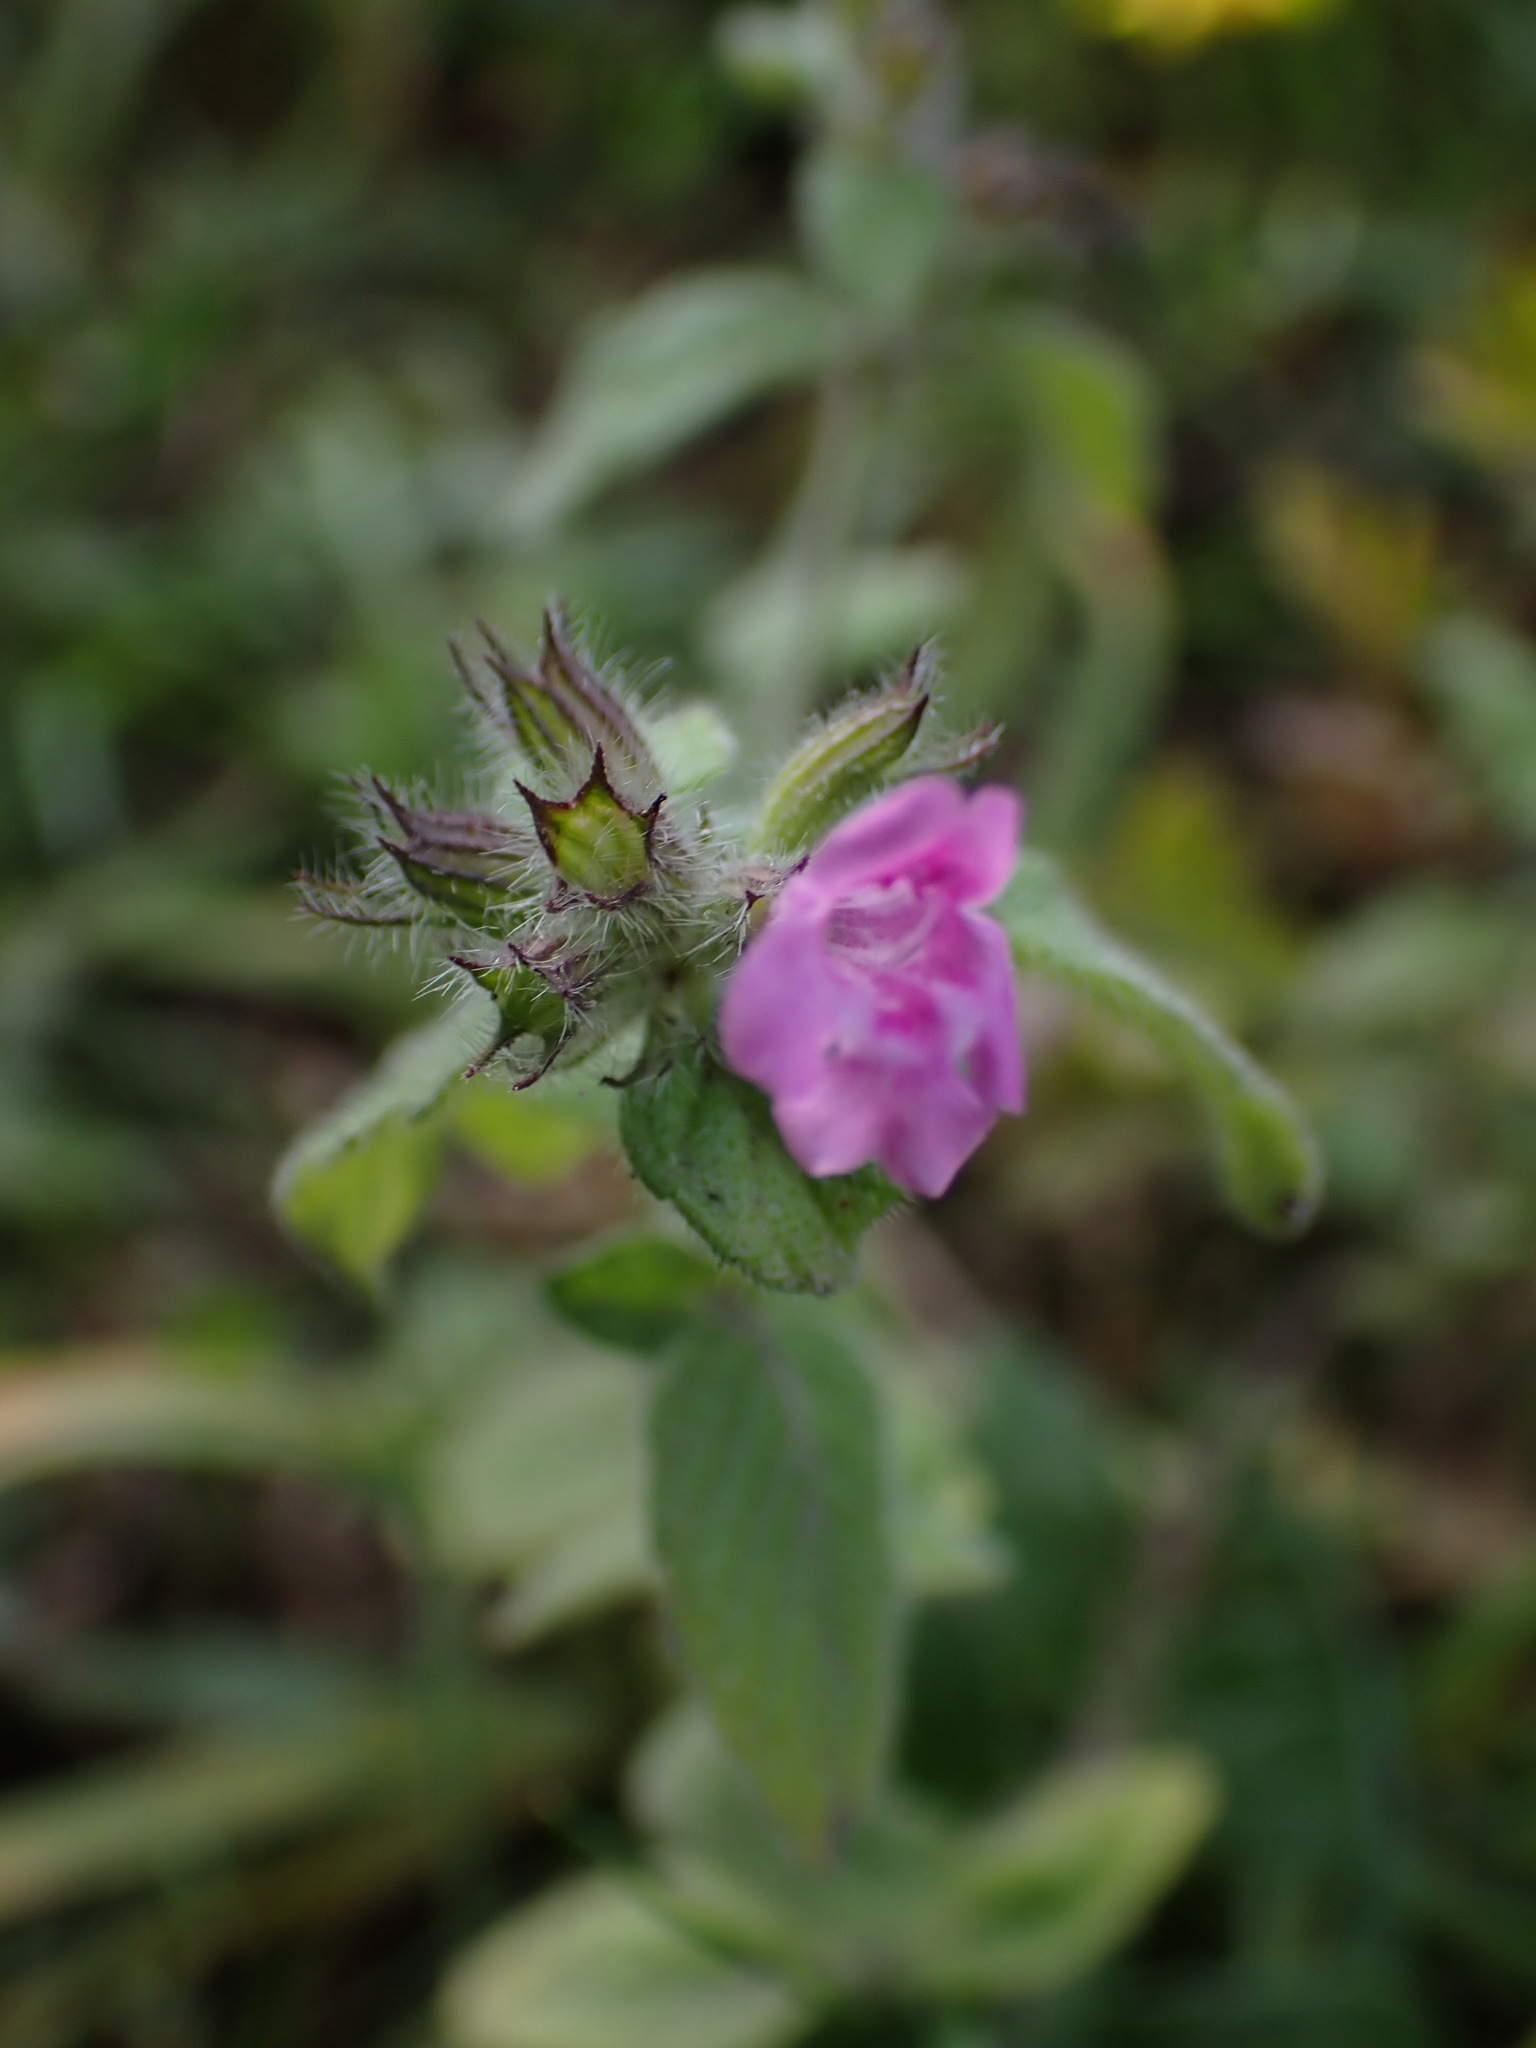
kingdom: Plantae
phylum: Tracheophyta
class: Magnoliopsida
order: Lamiales
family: Lamiaceae
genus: Clinopodium
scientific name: Clinopodium vulgare
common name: Wild basil
